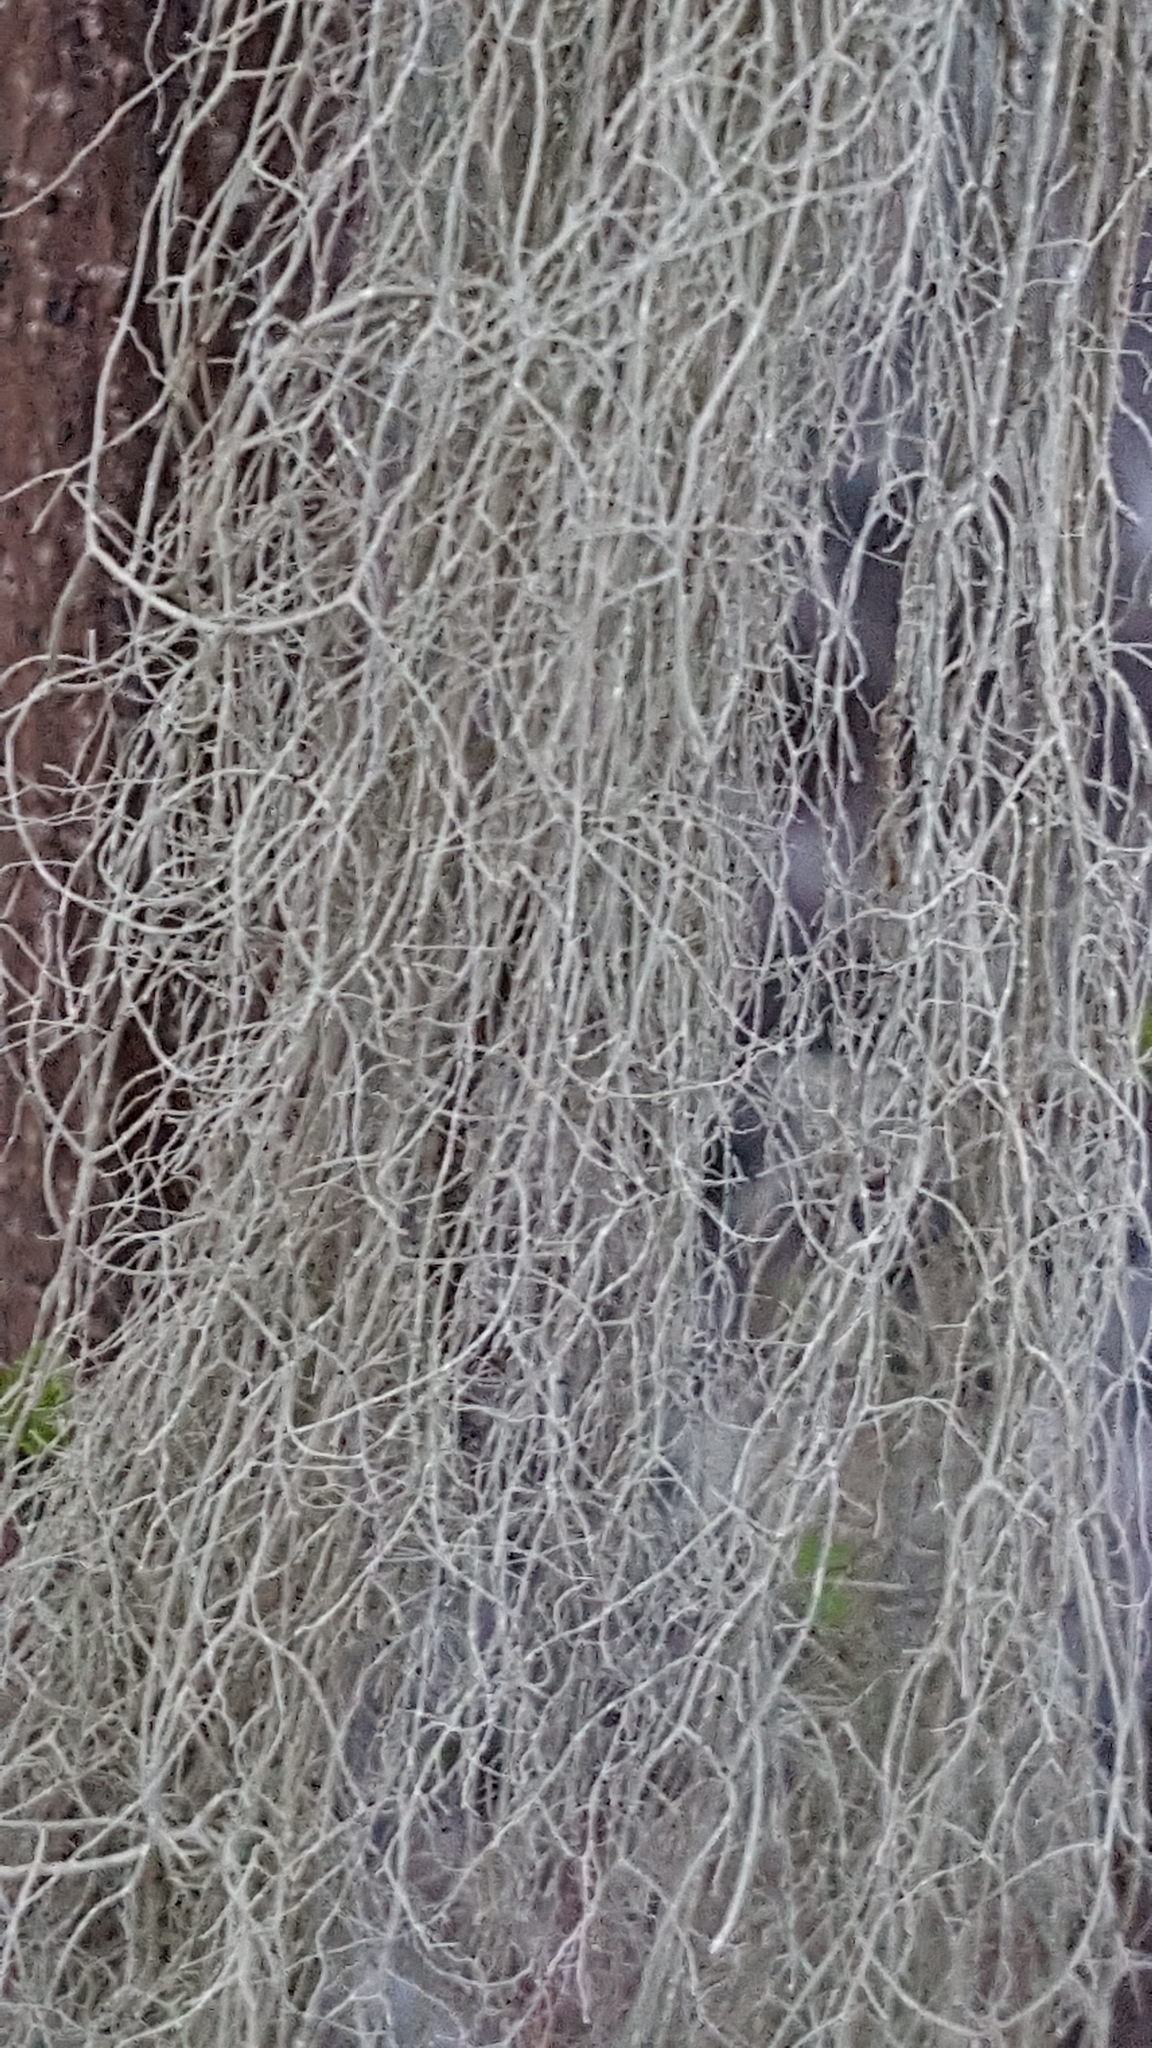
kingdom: Fungi
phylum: Ascomycota
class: Lecanoromycetes
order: Lecanorales
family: Parmeliaceae
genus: Usnea
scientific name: Usnea cavernosa
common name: Pitted beard lichen
